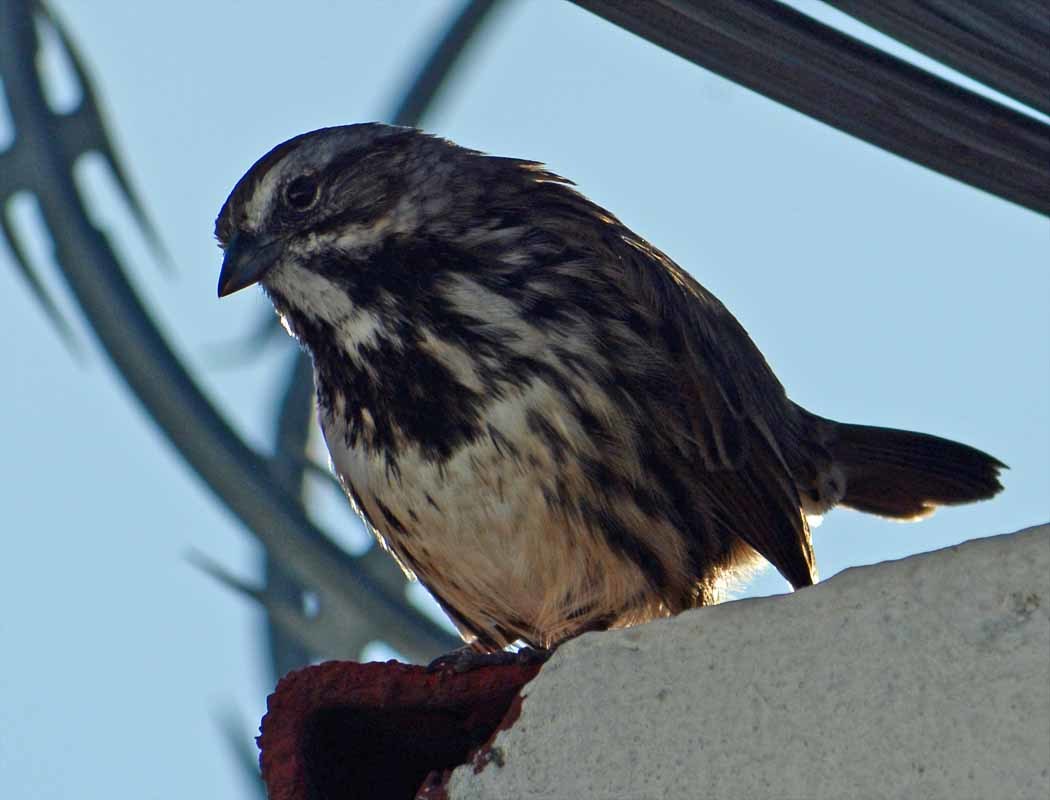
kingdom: Animalia
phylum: Chordata
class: Aves
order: Passeriformes
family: Passerellidae
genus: Melospiza
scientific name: Melospiza melodia
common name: Song sparrow
